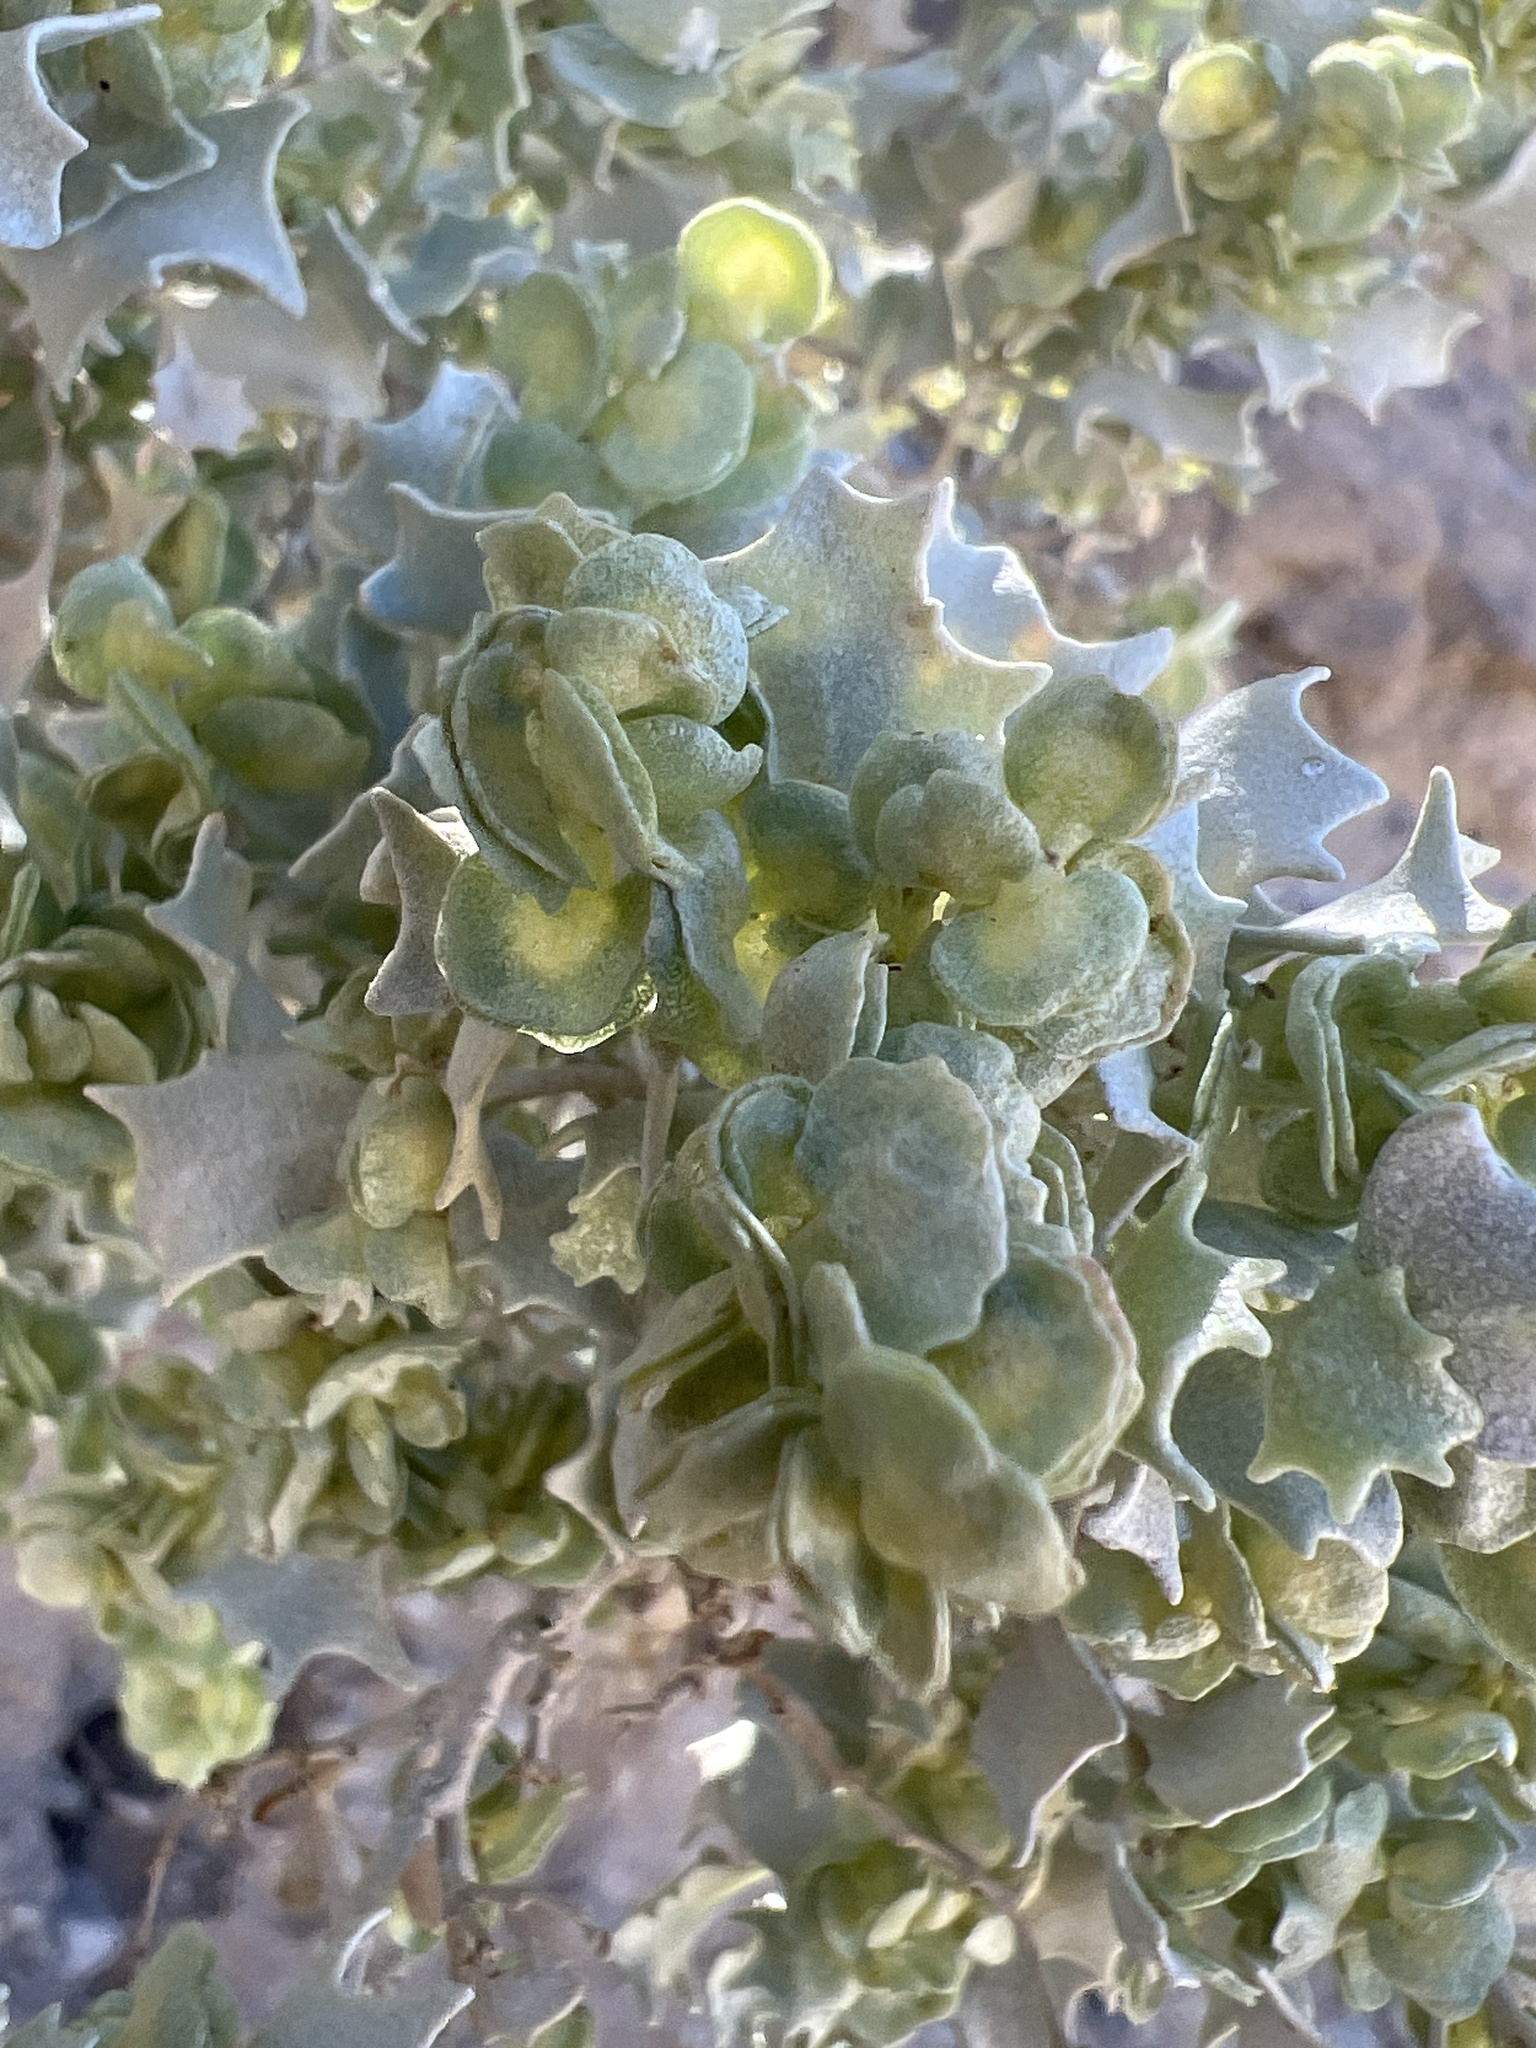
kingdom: Plantae
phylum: Tracheophyta
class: Magnoliopsida
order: Caryophyllales
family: Amaranthaceae
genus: Atriplex
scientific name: Atriplex hymenelytra
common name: Desert-holly
